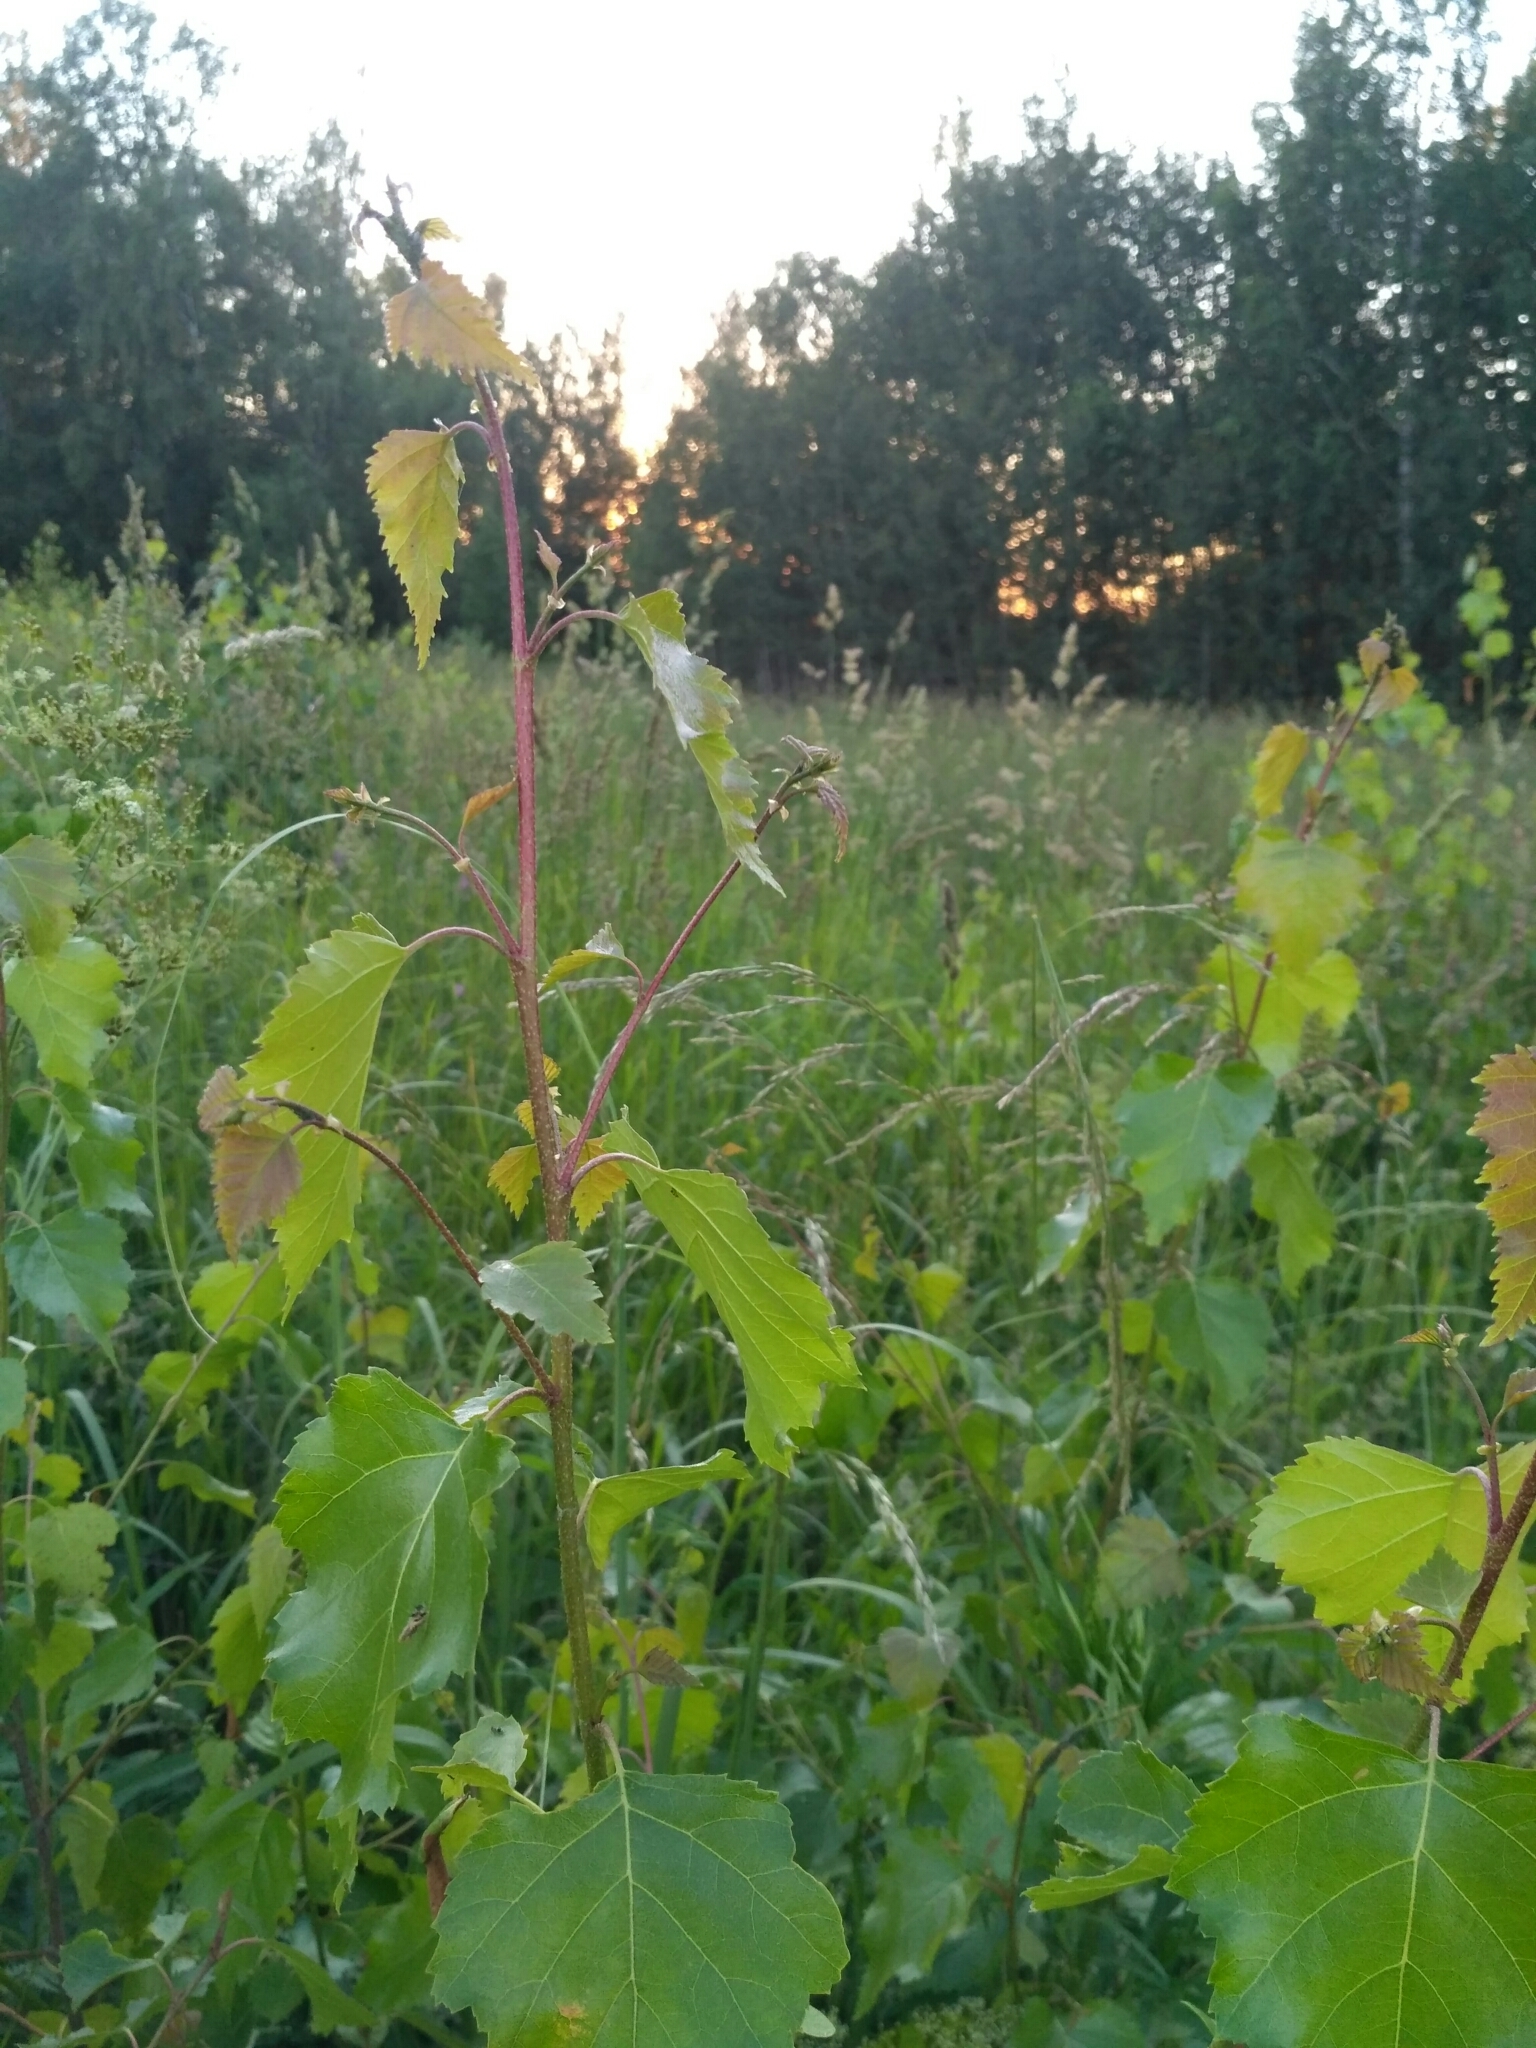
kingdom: Plantae
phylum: Tracheophyta
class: Magnoliopsida
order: Fagales
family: Betulaceae
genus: Betula
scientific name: Betula pendula
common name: Silver birch
